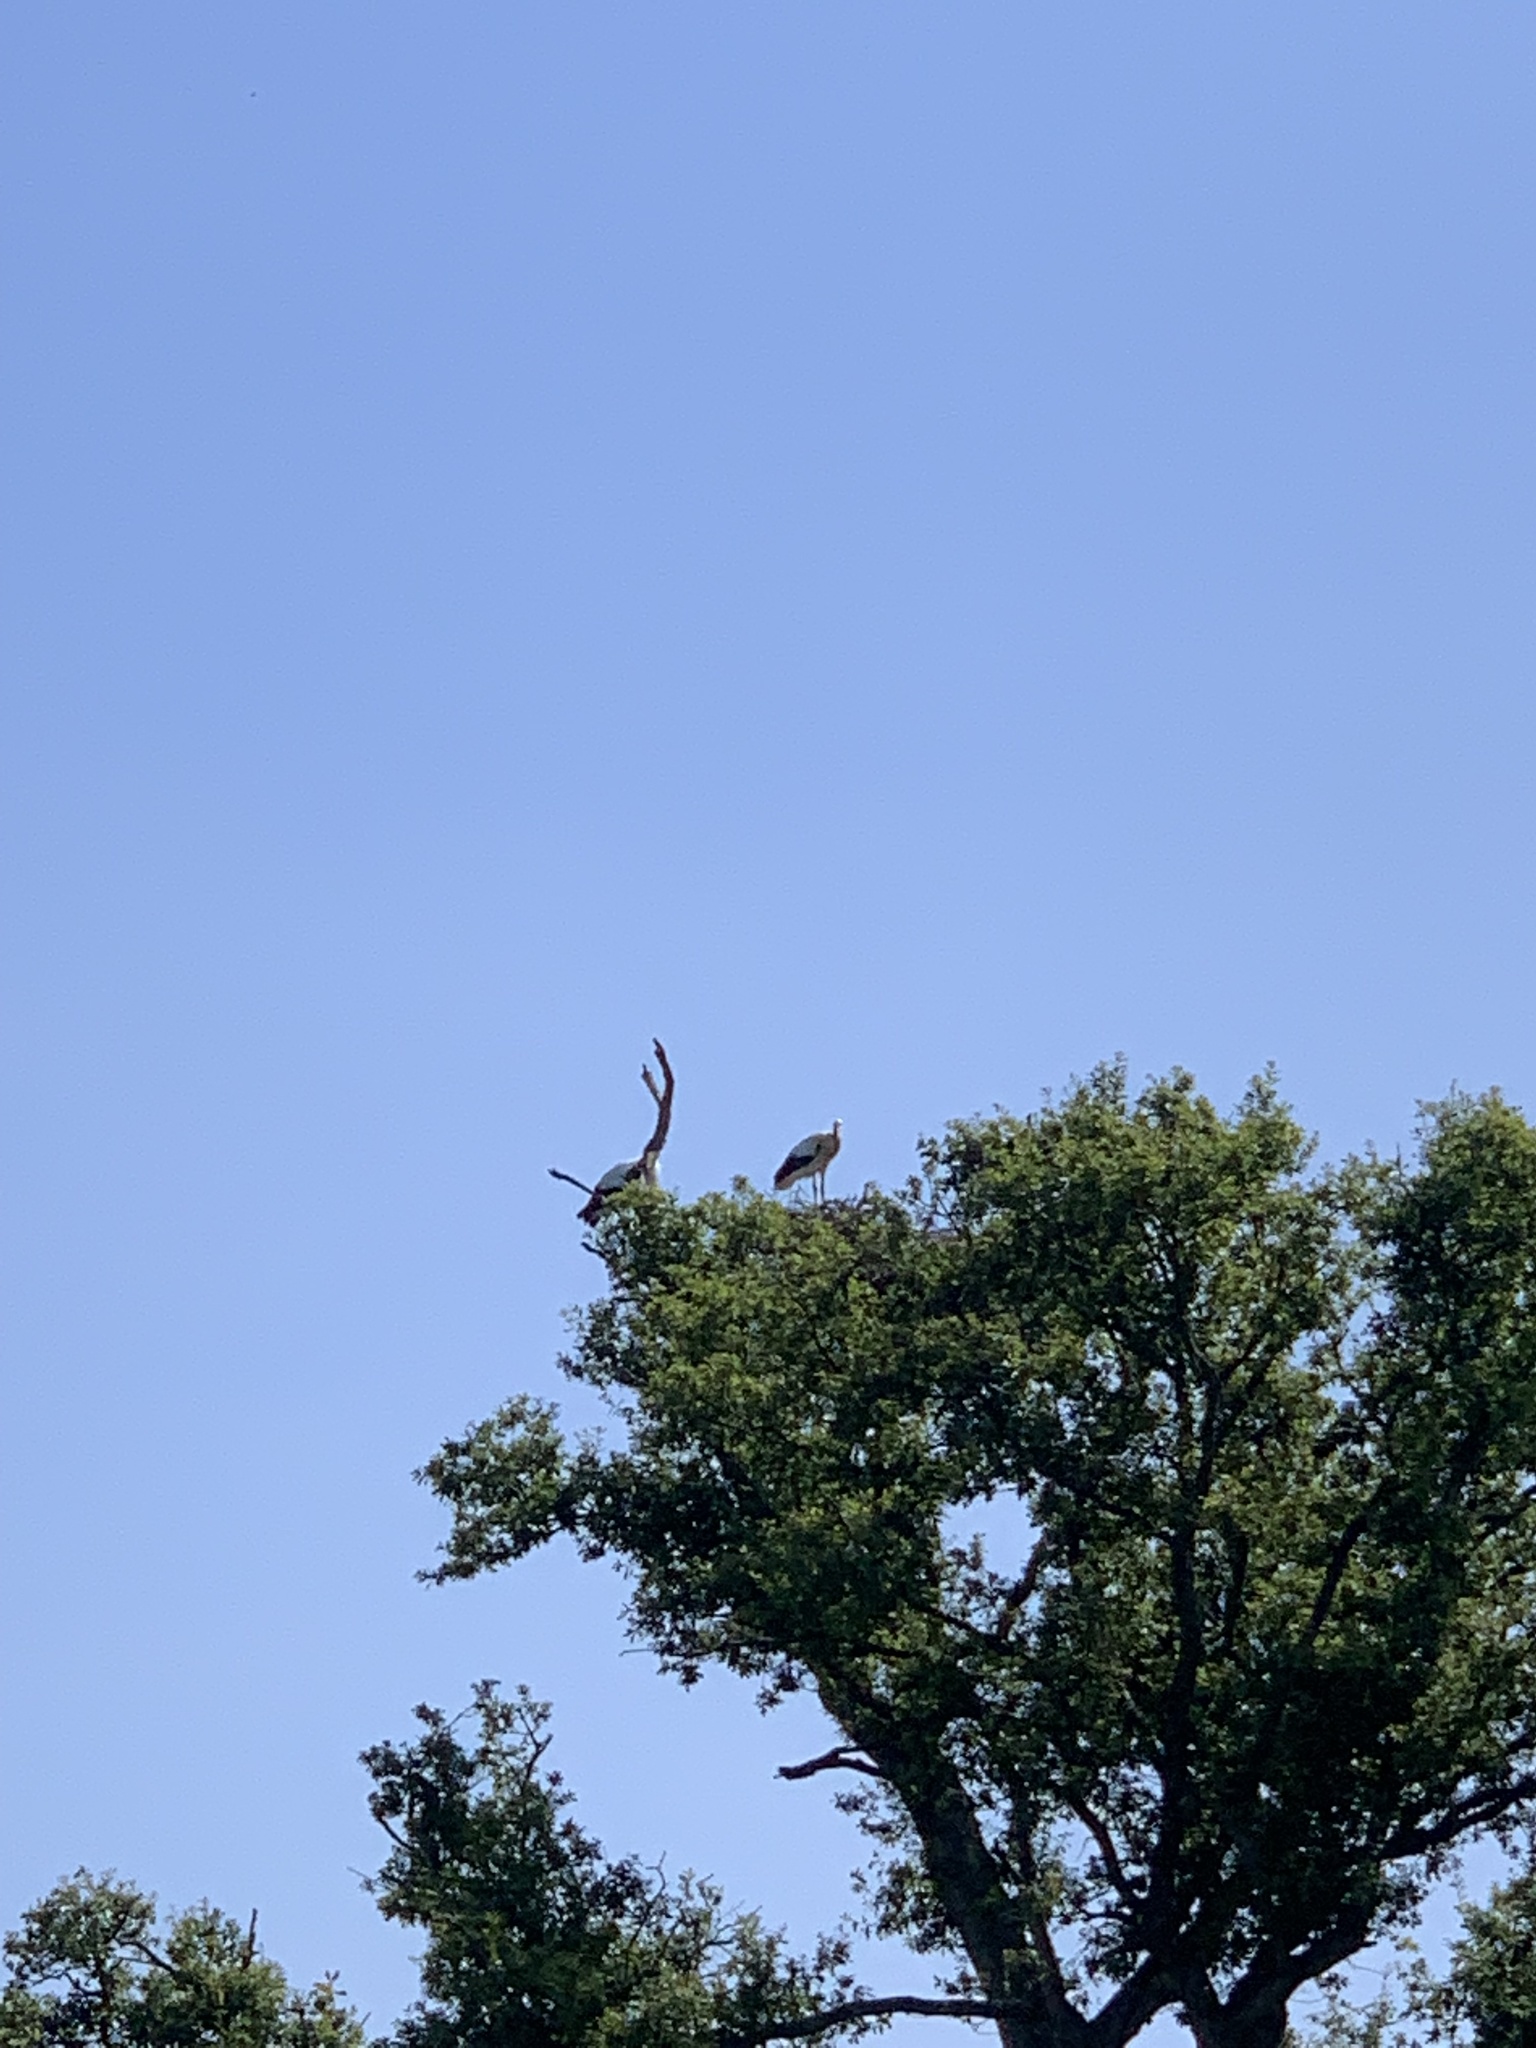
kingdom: Animalia
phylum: Chordata
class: Aves
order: Ciconiiformes
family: Ciconiidae
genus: Ciconia
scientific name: Ciconia ciconia
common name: White stork
